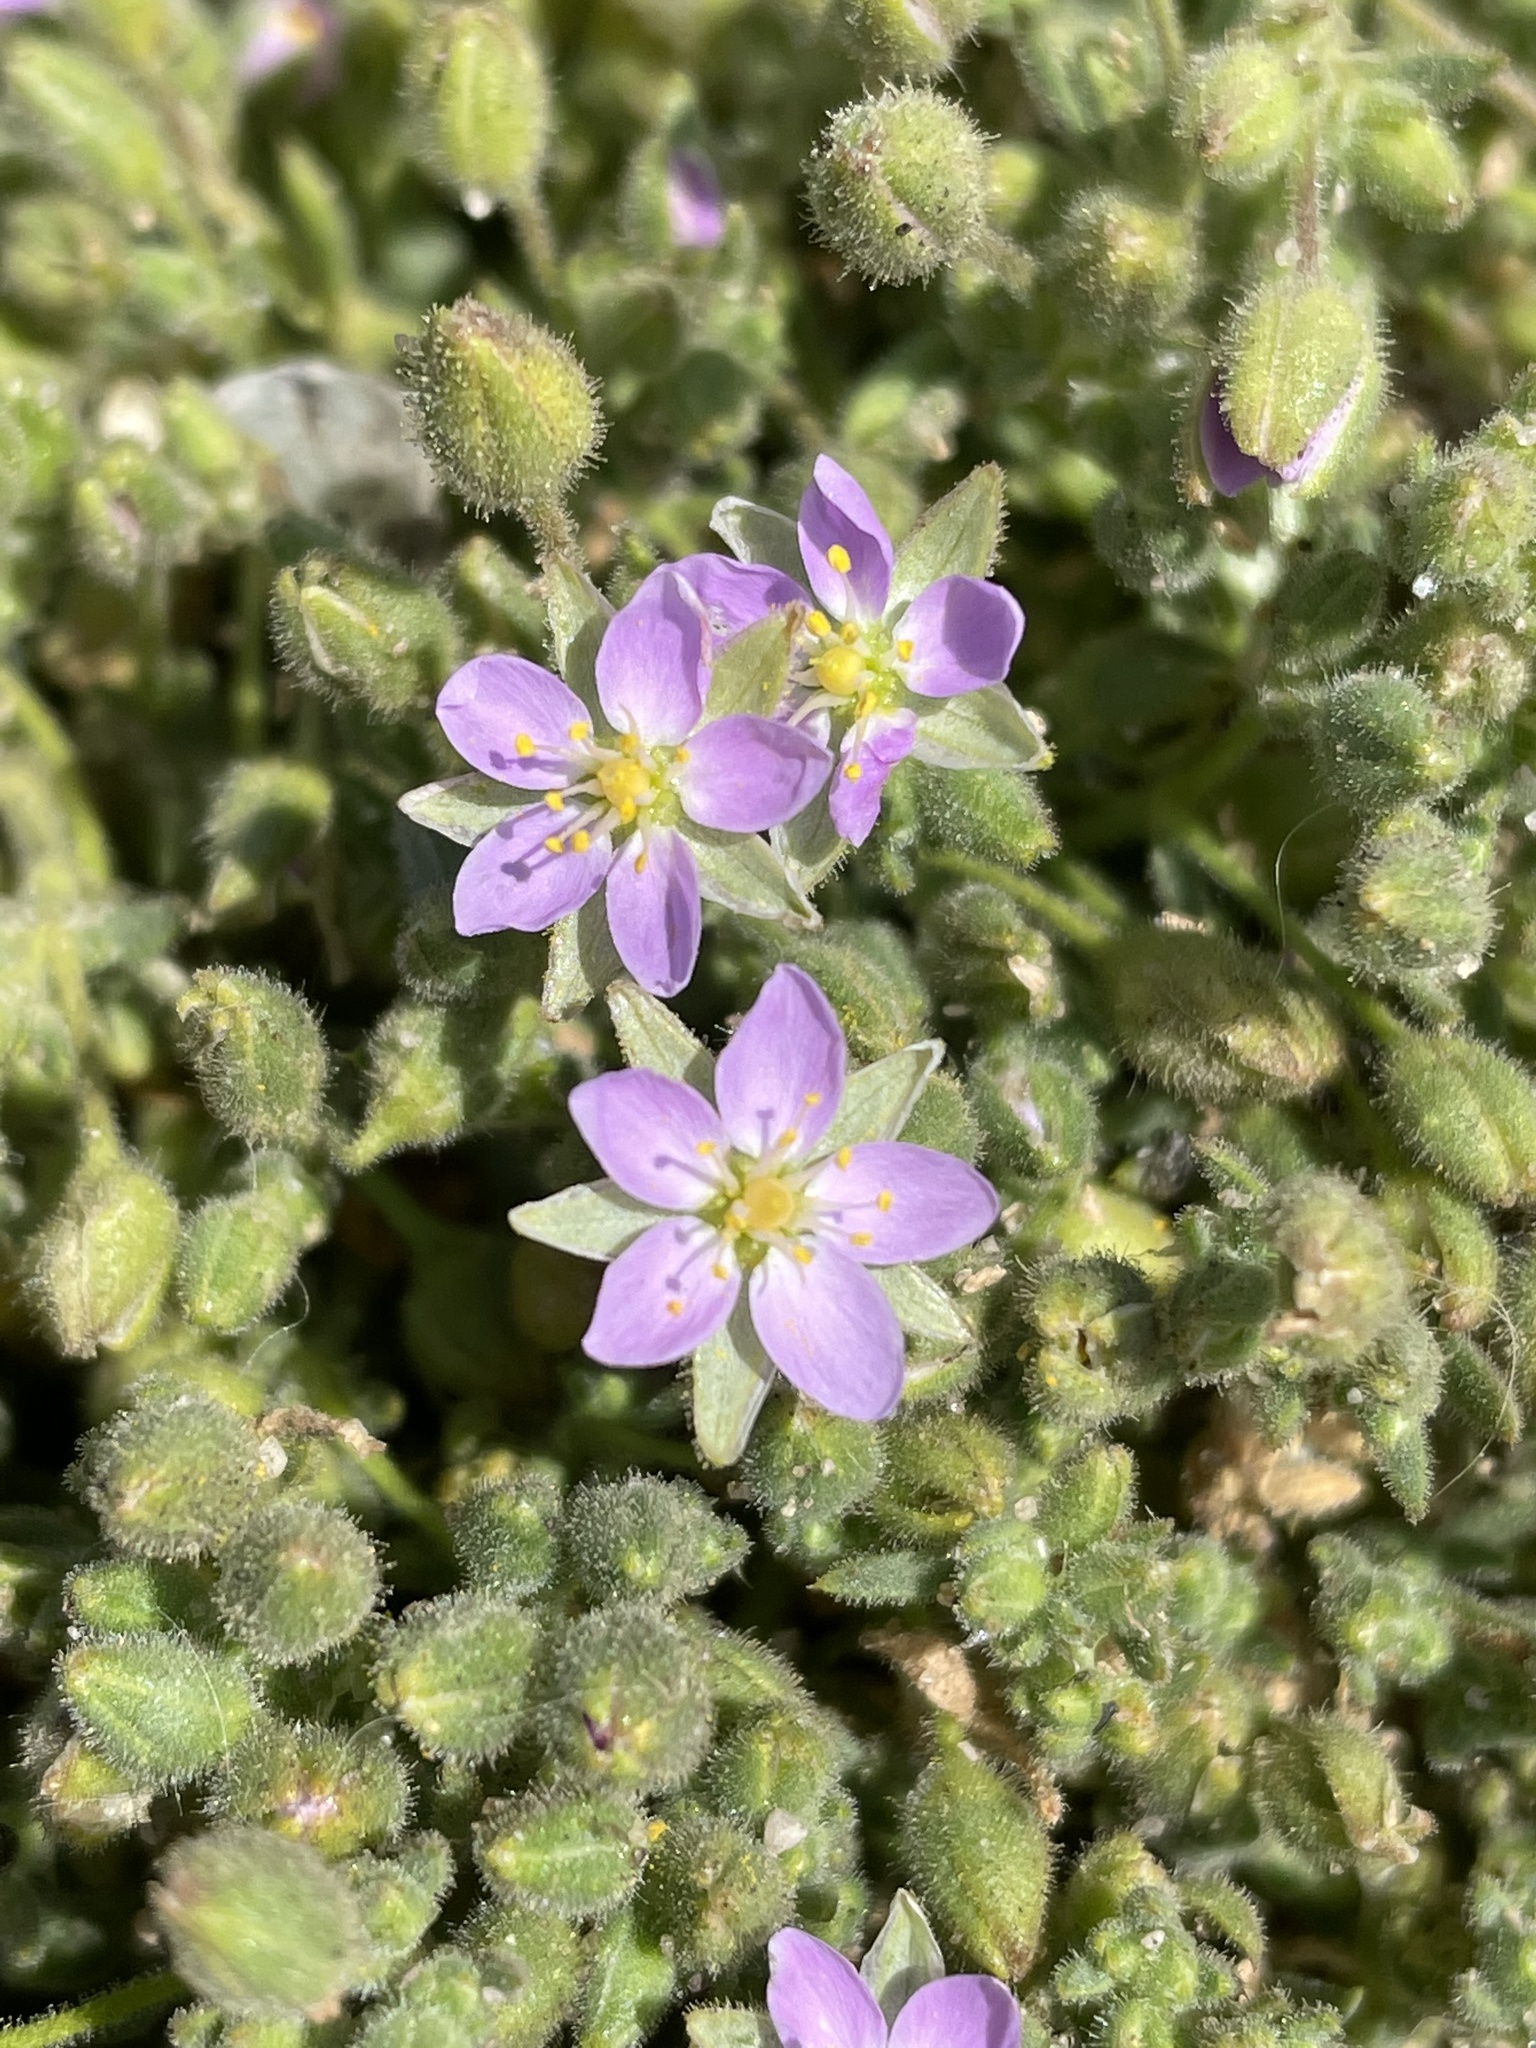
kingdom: Plantae
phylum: Tracheophyta
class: Magnoliopsida
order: Caryophyllales
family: Caryophyllaceae
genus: Spergularia
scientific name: Spergularia macrotheca
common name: Beach sand-spurrey
